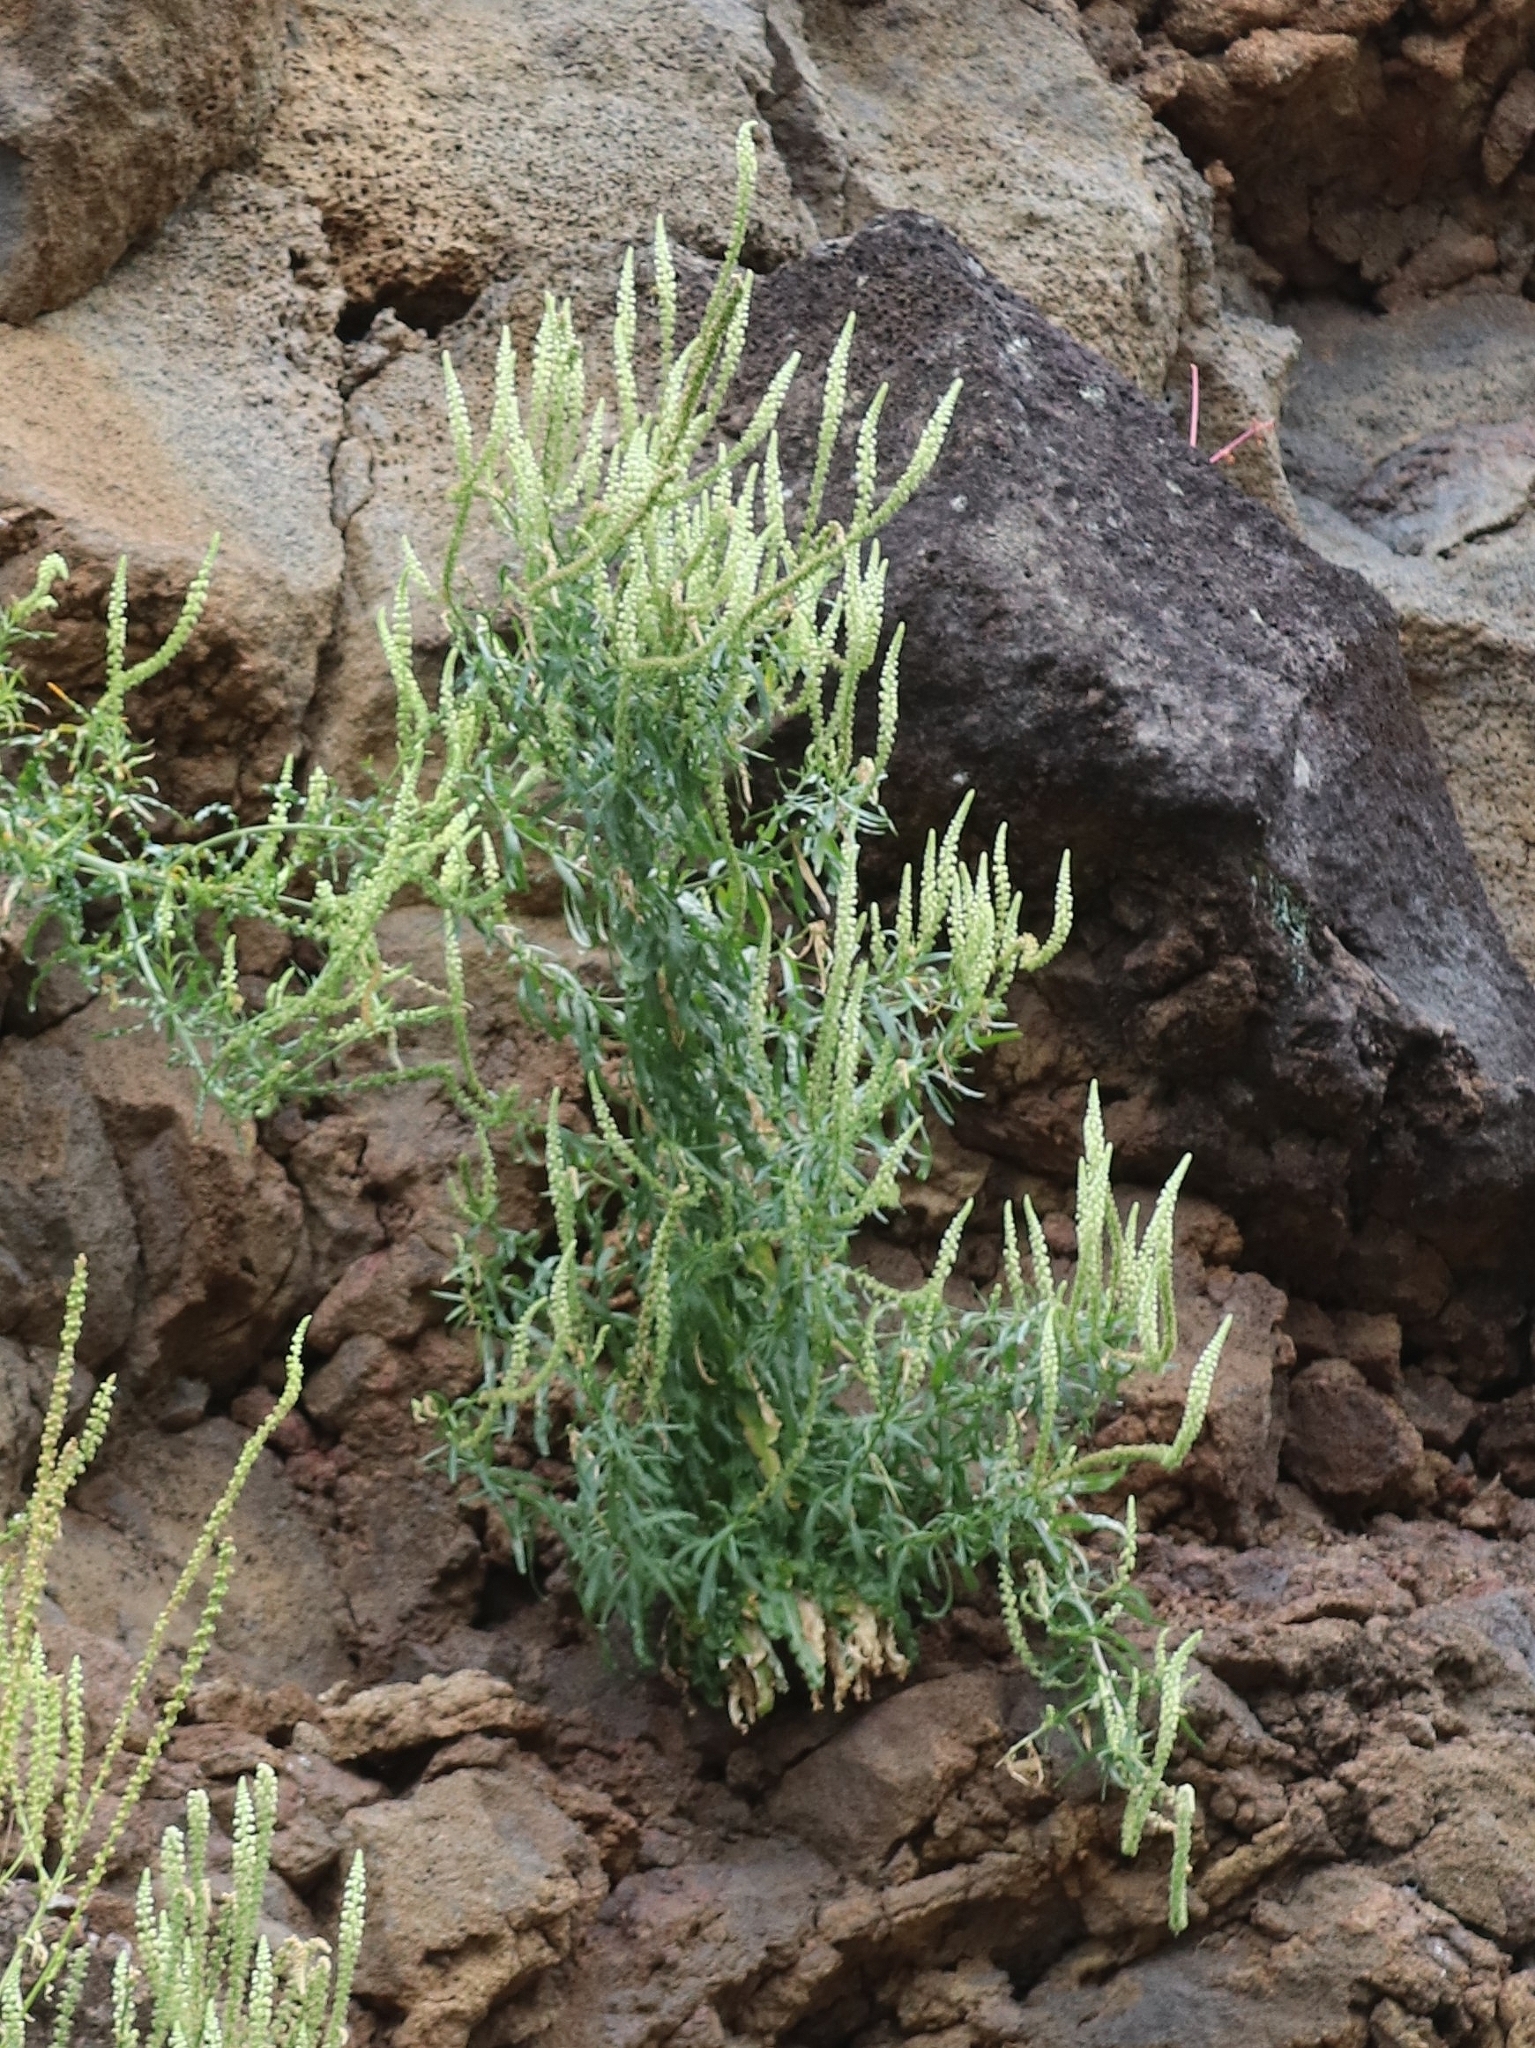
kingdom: Plantae
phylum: Tracheophyta
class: Magnoliopsida
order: Brassicales
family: Resedaceae
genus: Reseda
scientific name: Reseda luteola
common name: Weld
